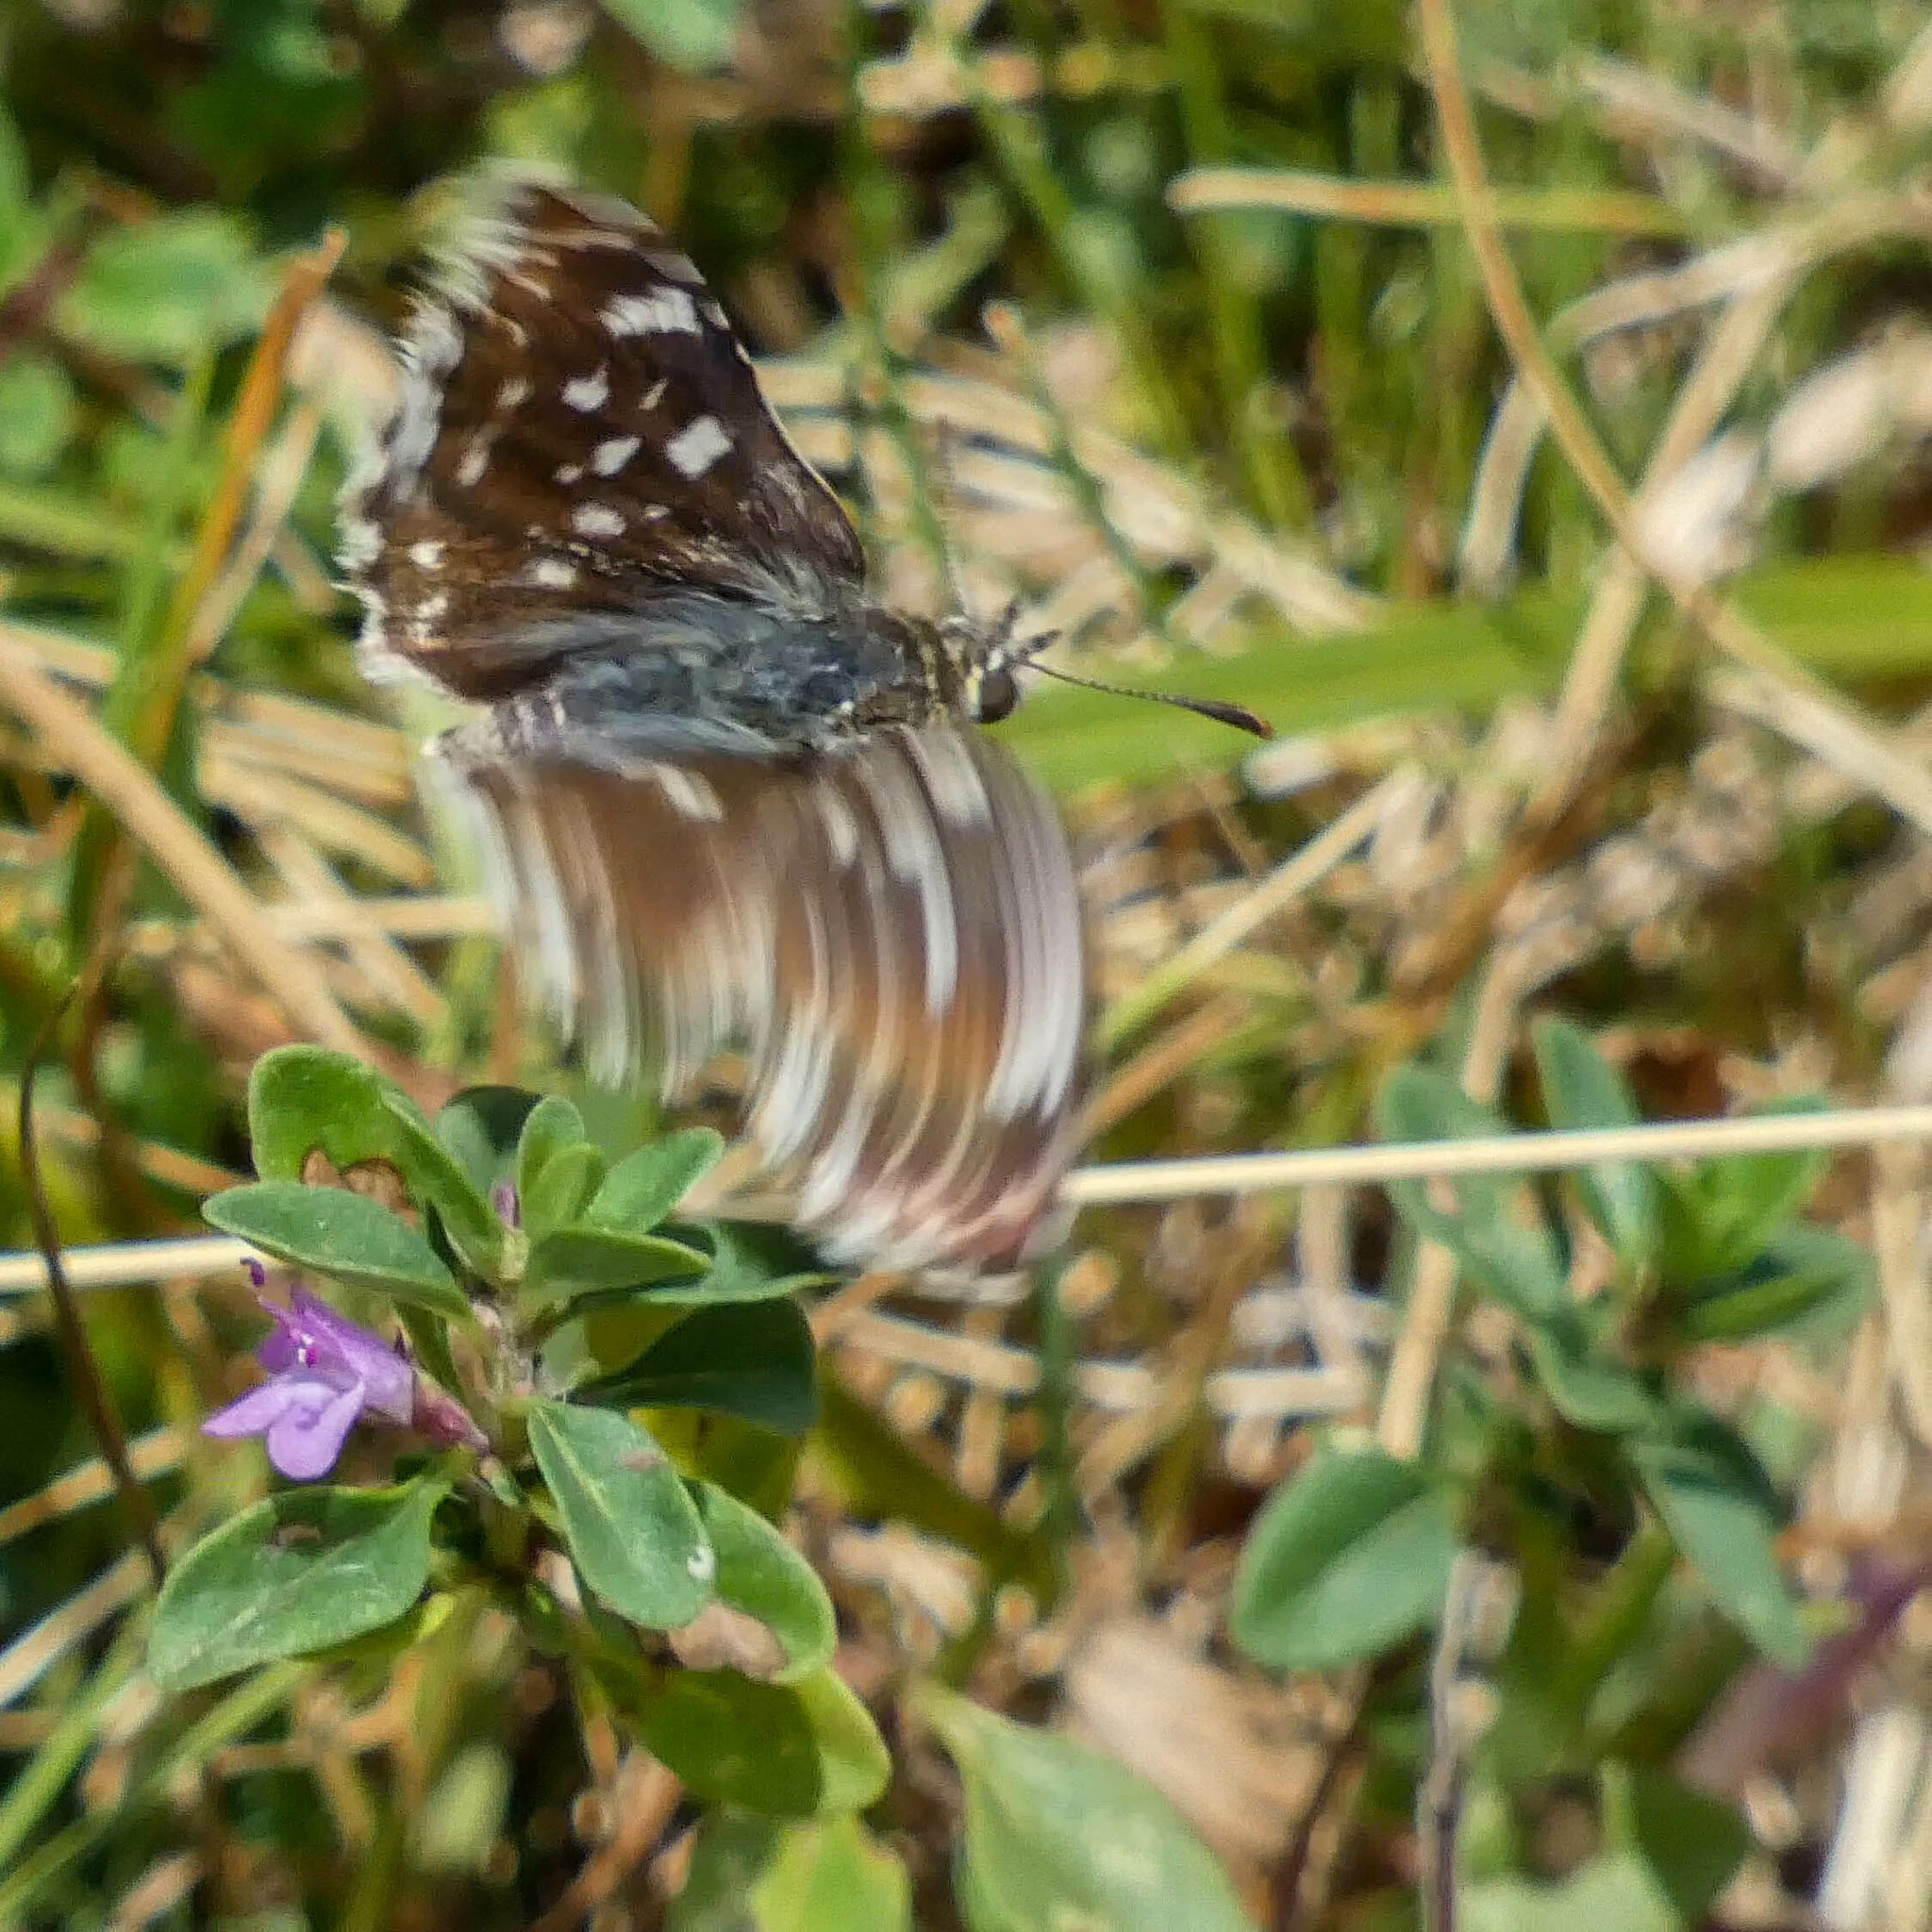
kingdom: Animalia
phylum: Arthropoda
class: Insecta
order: Lepidoptera
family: Hesperiidae
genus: Spialia
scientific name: Spialia sertorius
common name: Red underwing skipper
